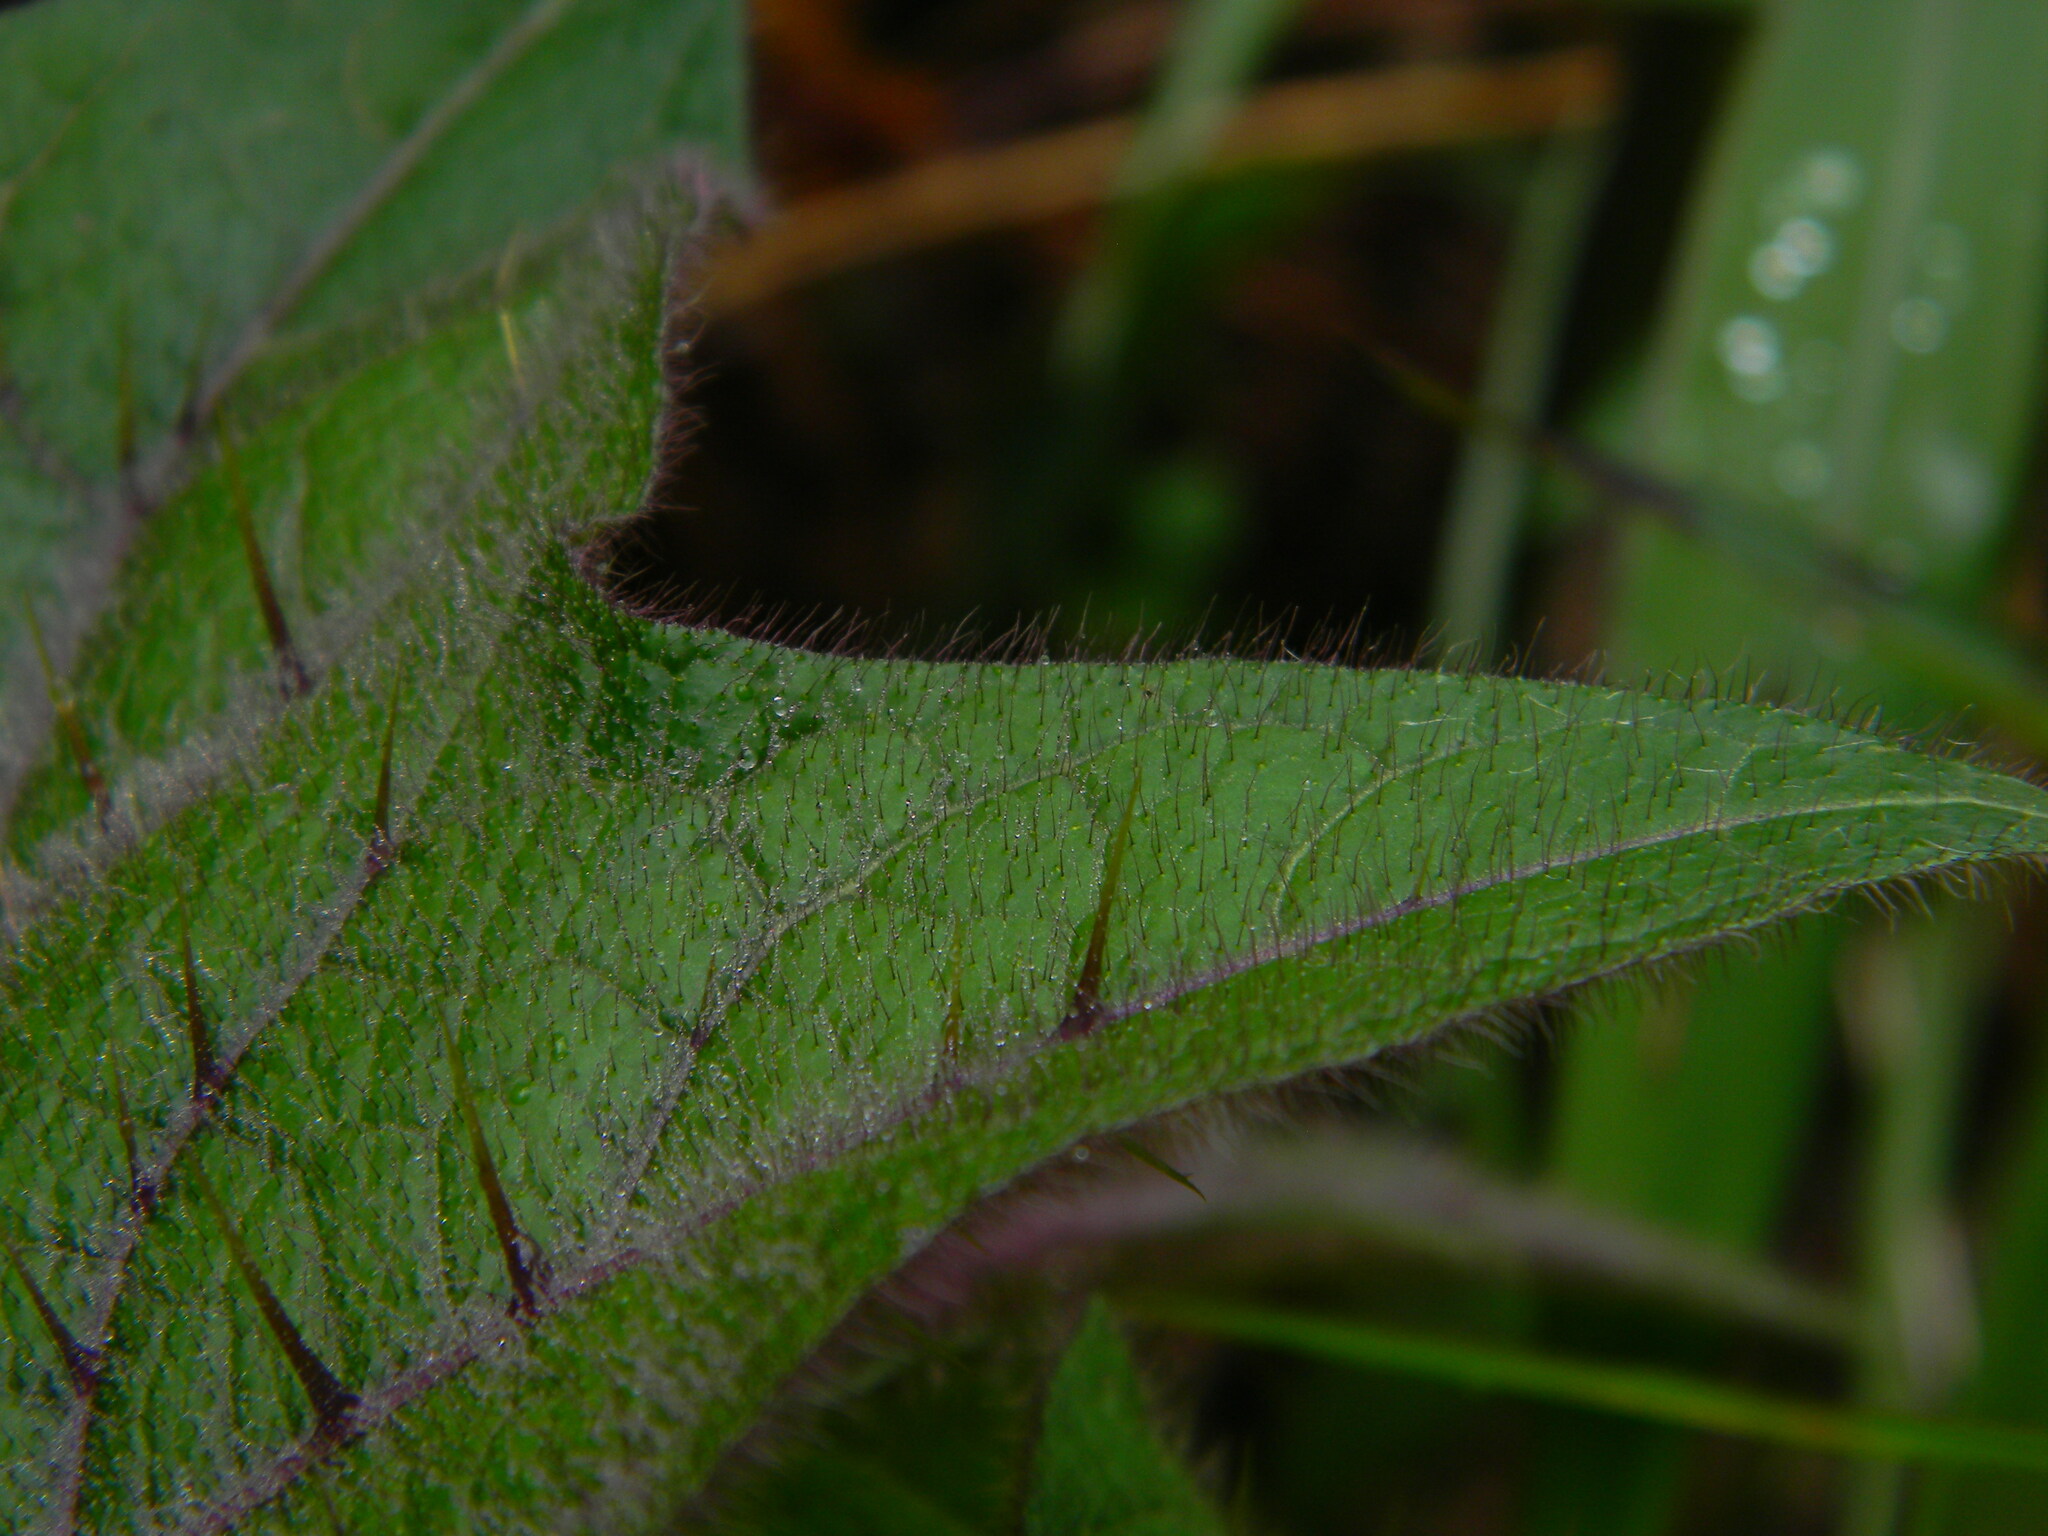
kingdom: Plantae
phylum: Tracheophyta
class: Magnoliopsida
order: Solanales
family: Solanaceae
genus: Solanum
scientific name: Solanum
